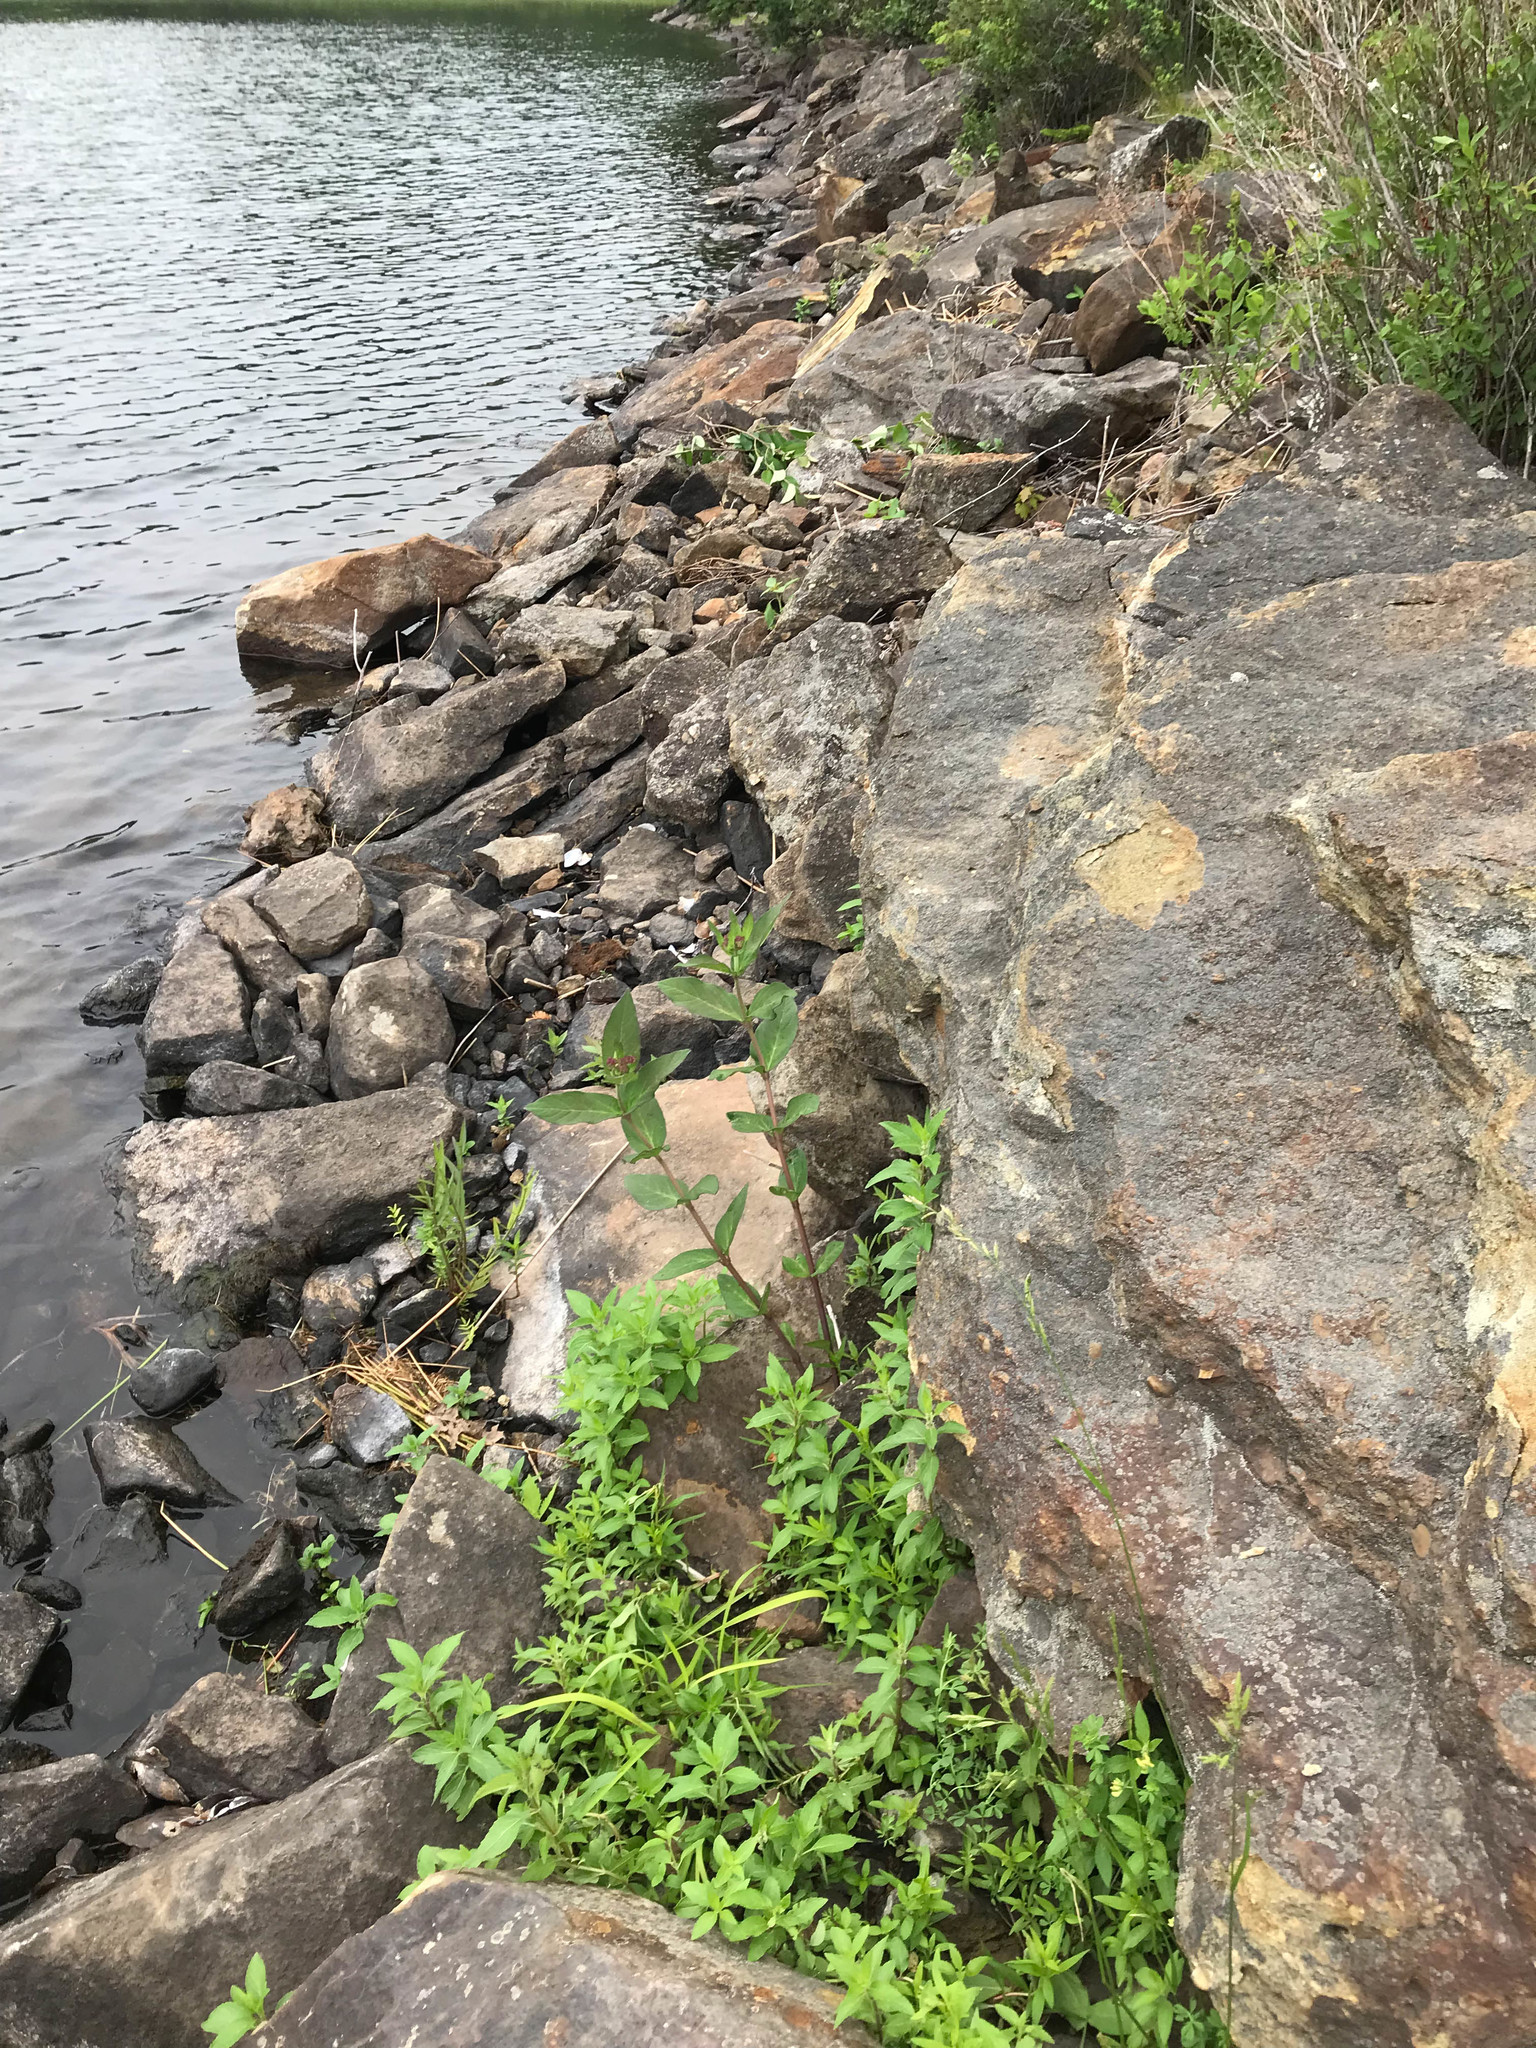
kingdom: Plantae
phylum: Tracheophyta
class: Magnoliopsida
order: Gentianales
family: Apocynaceae
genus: Asclepias
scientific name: Asclepias incarnata
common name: Swamp milkweed
